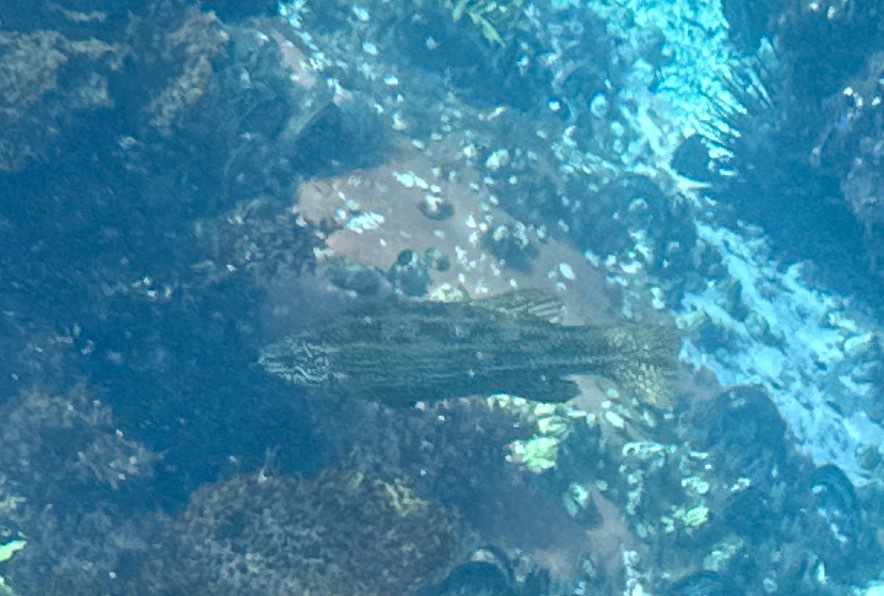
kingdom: Animalia
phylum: Chordata
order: Perciformes
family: Odacidae
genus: Olisthops
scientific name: Olisthops cyanomelas
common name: Herring cale
